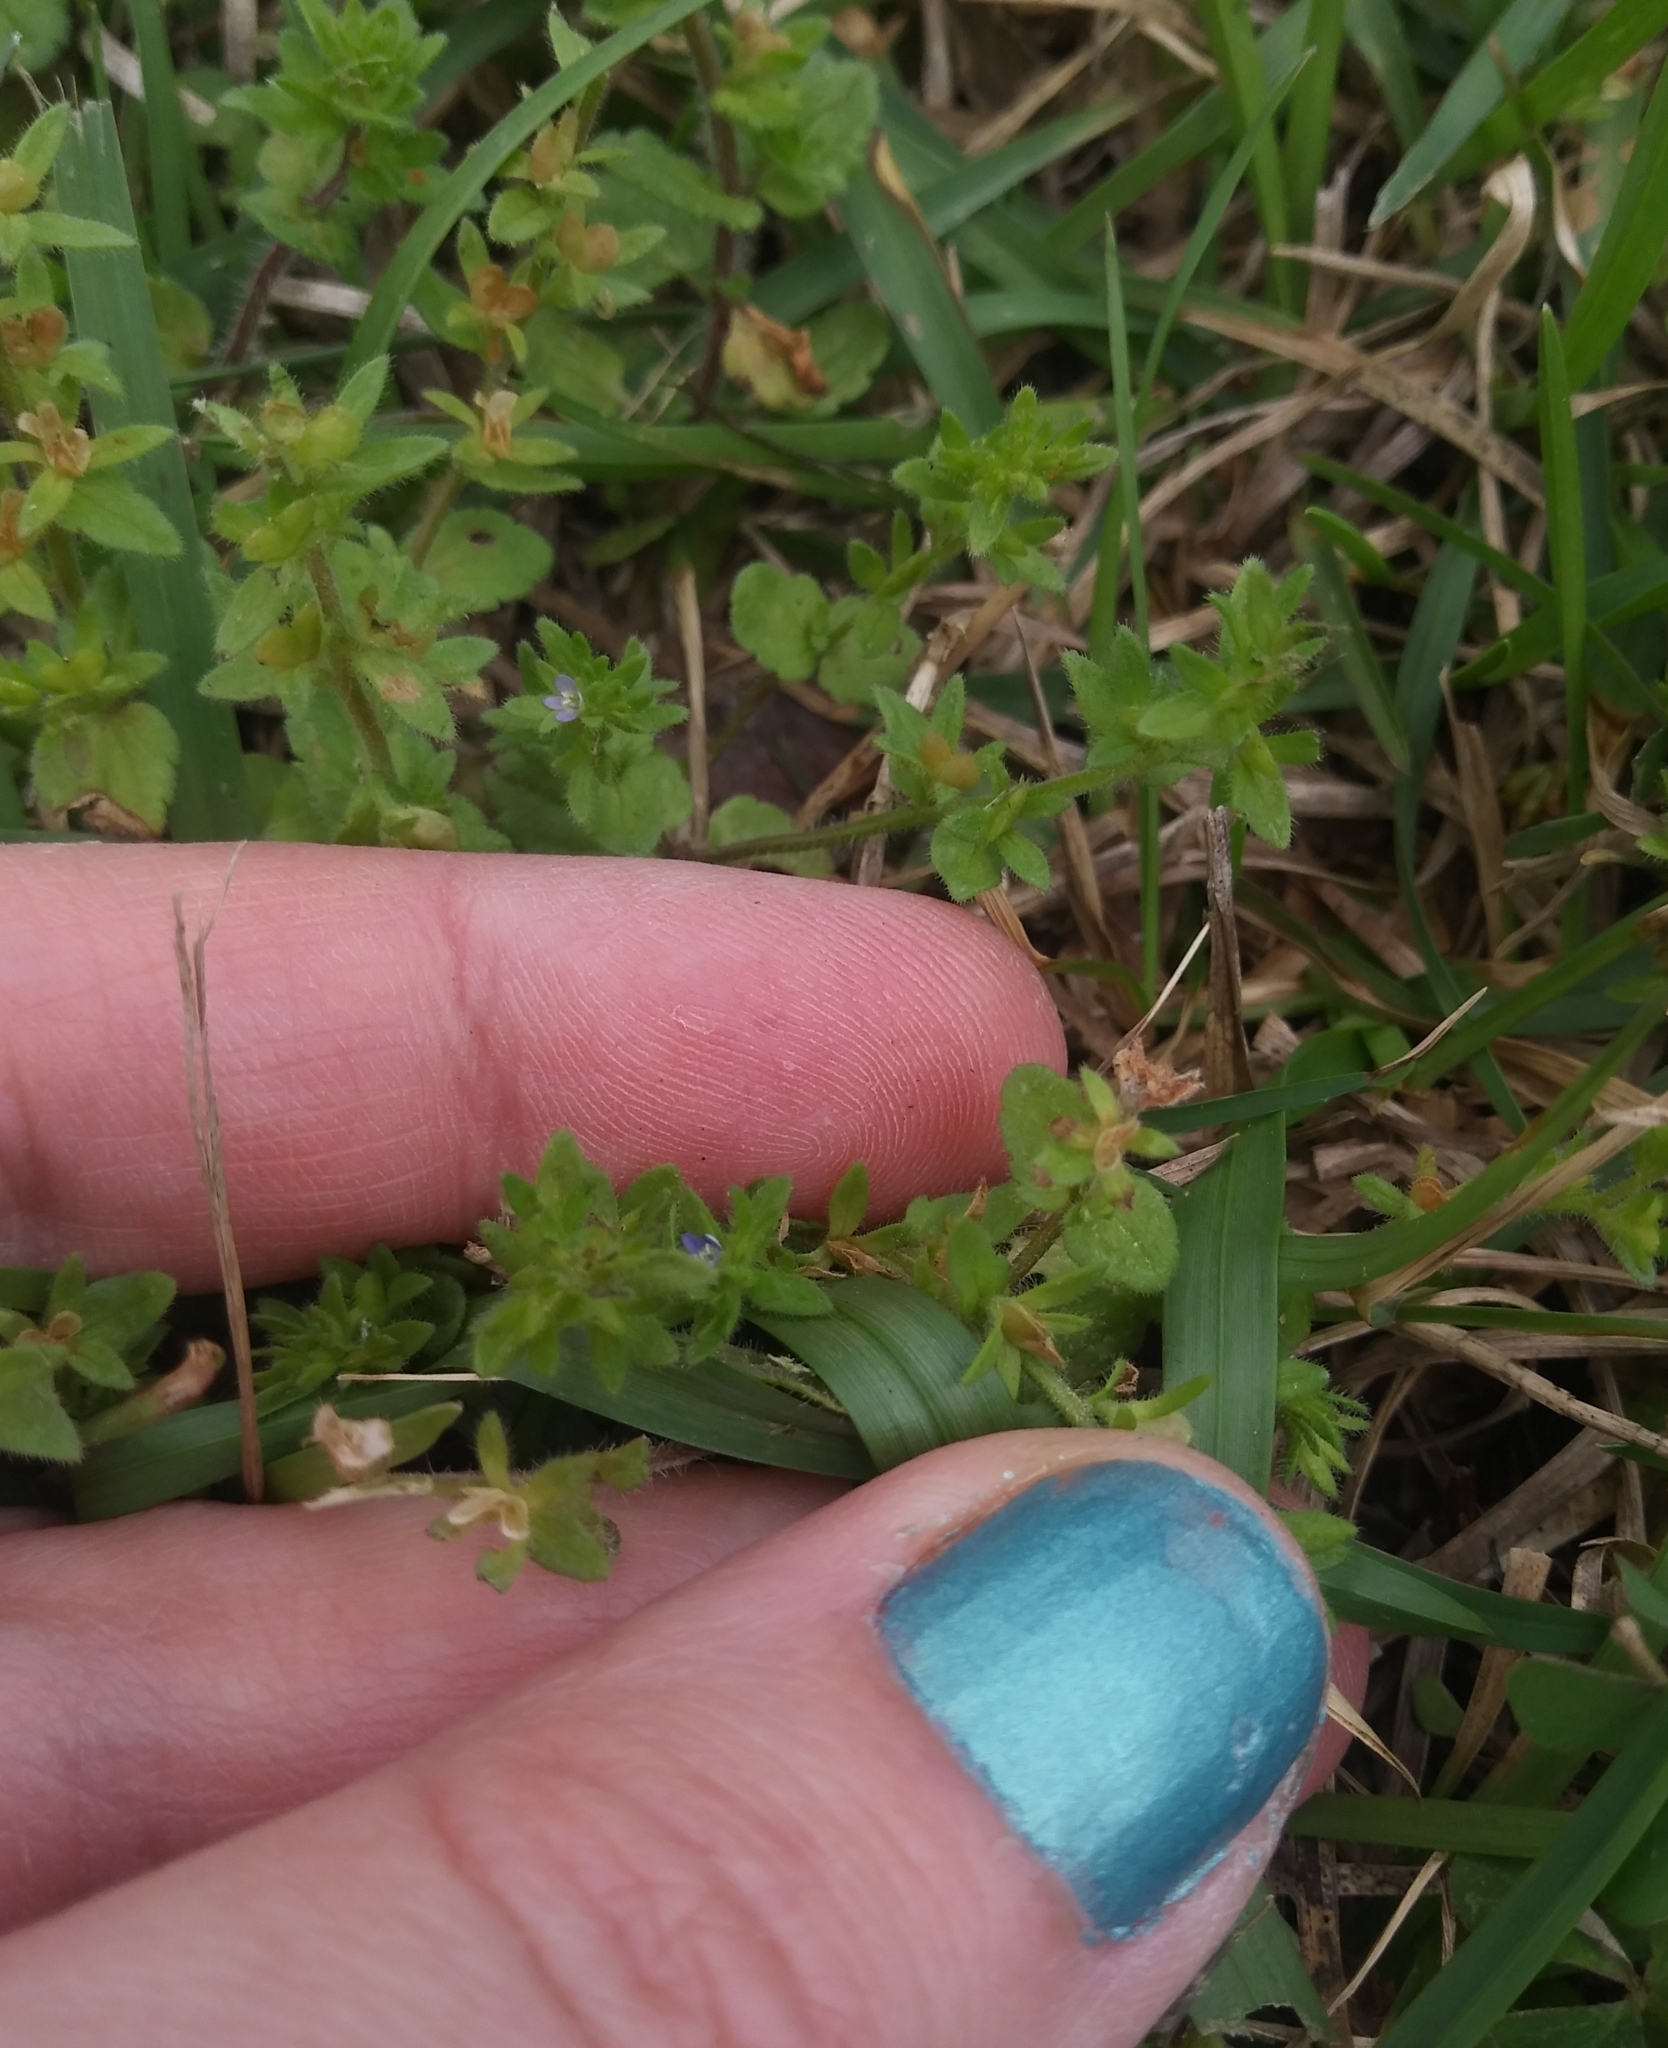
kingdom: Plantae
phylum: Tracheophyta
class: Magnoliopsida
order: Lamiales
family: Plantaginaceae
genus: Veronica
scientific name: Veronica arvensis
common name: Corn speedwell
